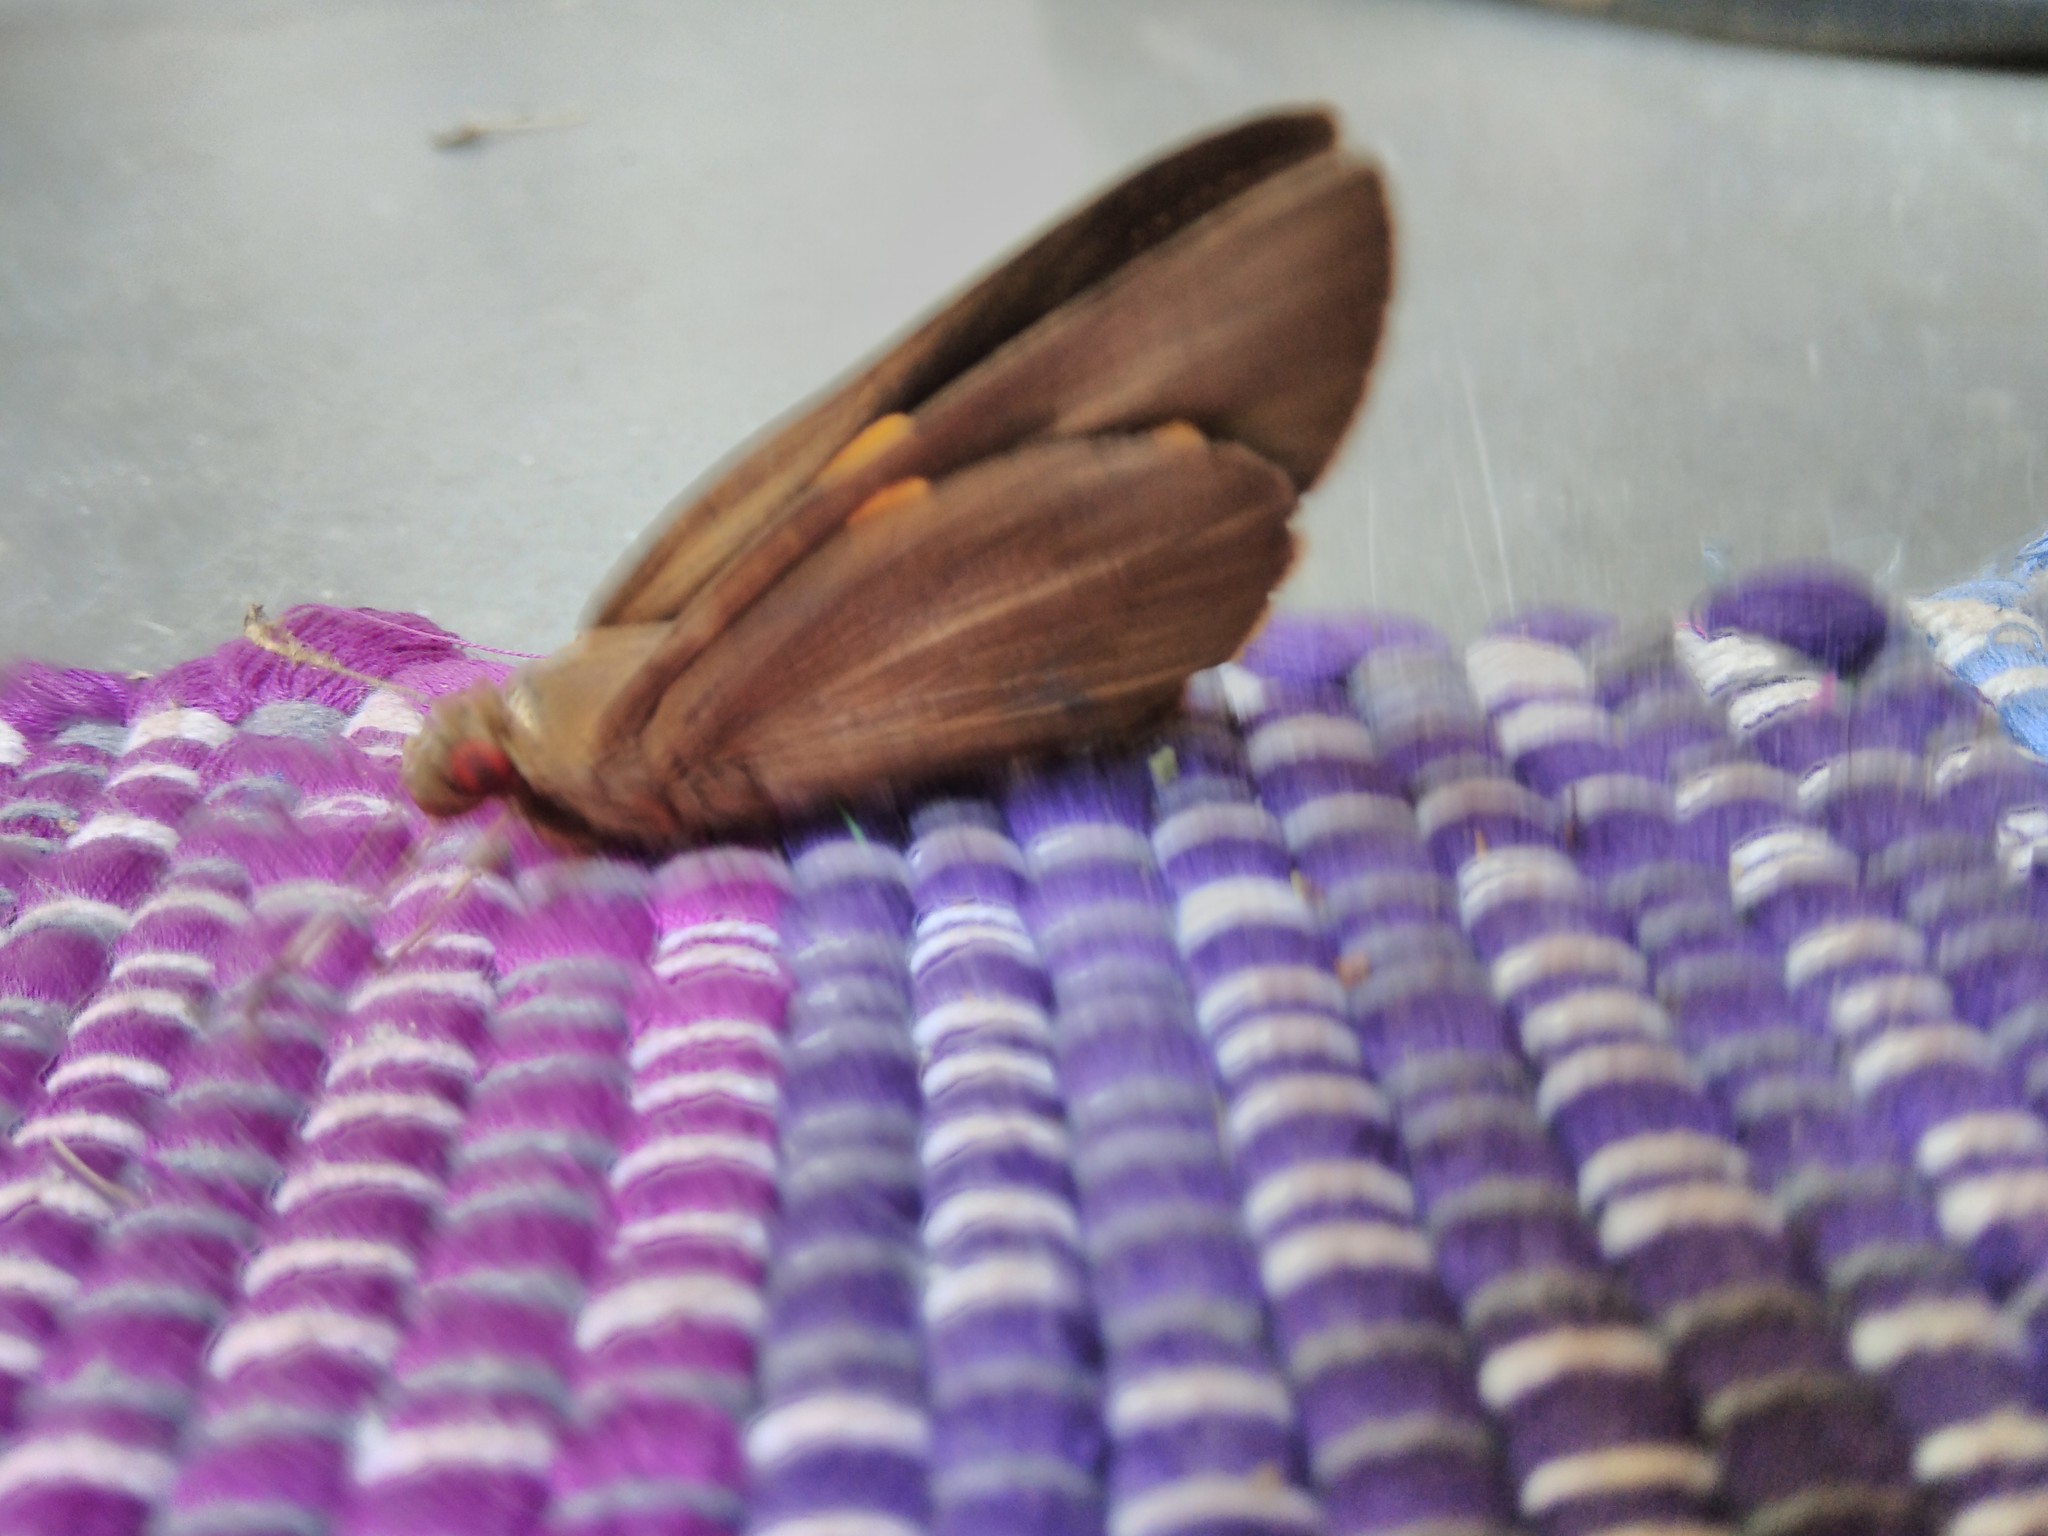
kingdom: Animalia
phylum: Arthropoda
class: Insecta
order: Lepidoptera
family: Hesperiidae
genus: Erionota
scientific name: Erionota torus
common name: Rounded palm-redeye
